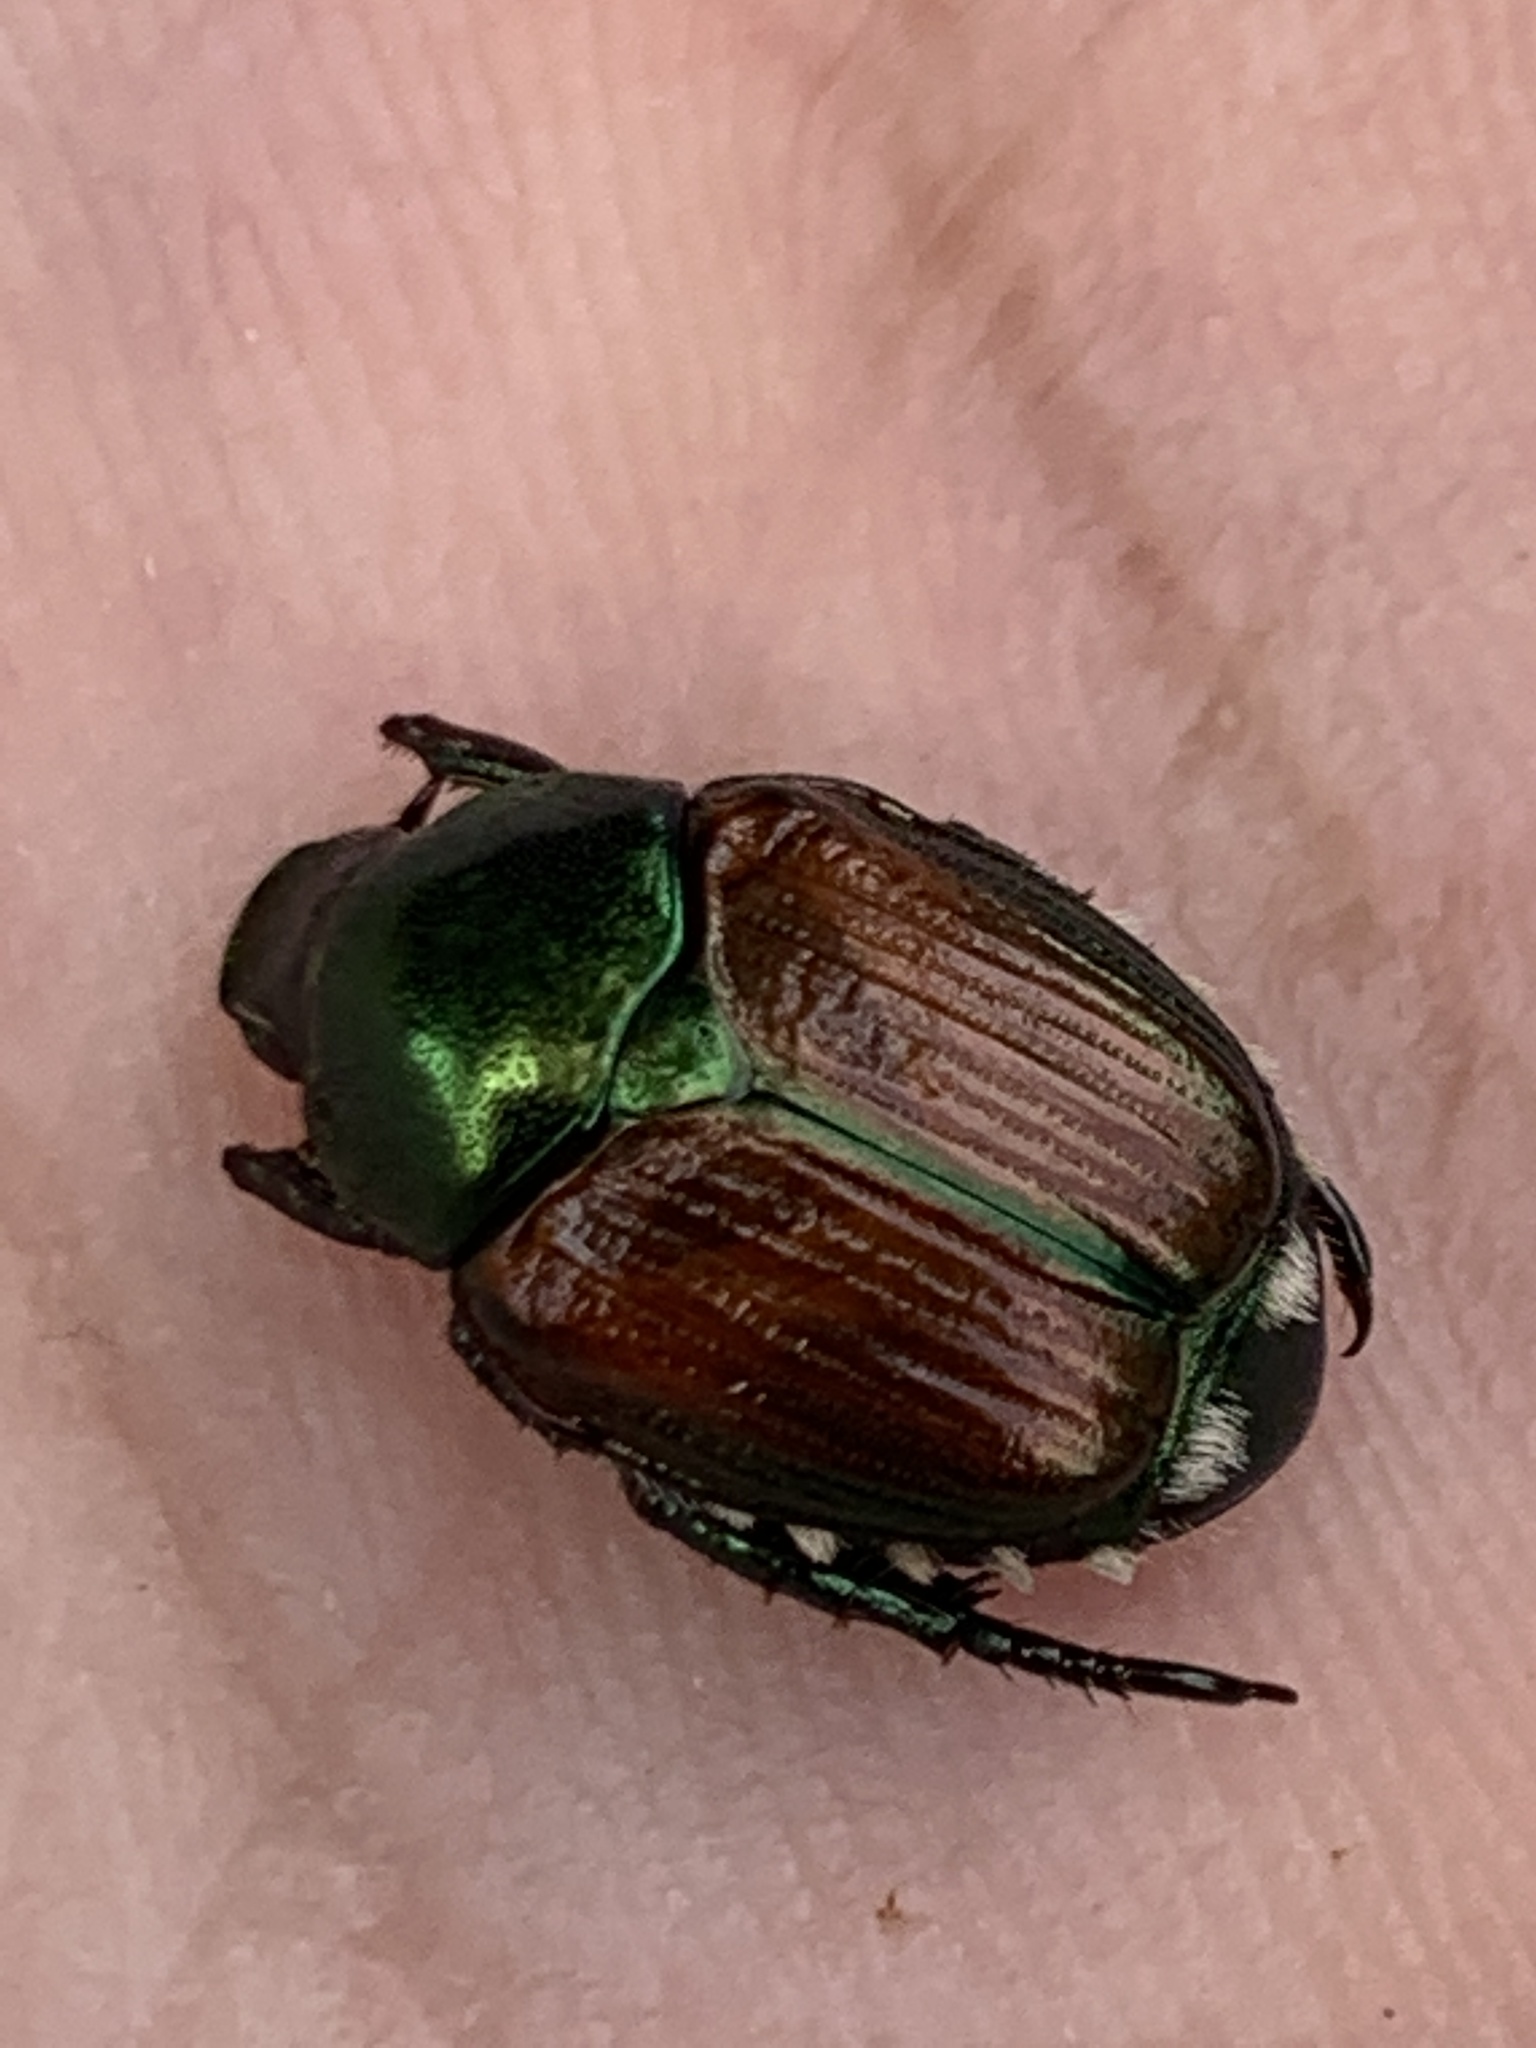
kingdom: Animalia
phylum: Arthropoda
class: Insecta
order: Coleoptera
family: Scarabaeidae
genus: Popillia
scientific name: Popillia japonica
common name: Japanese beetle
